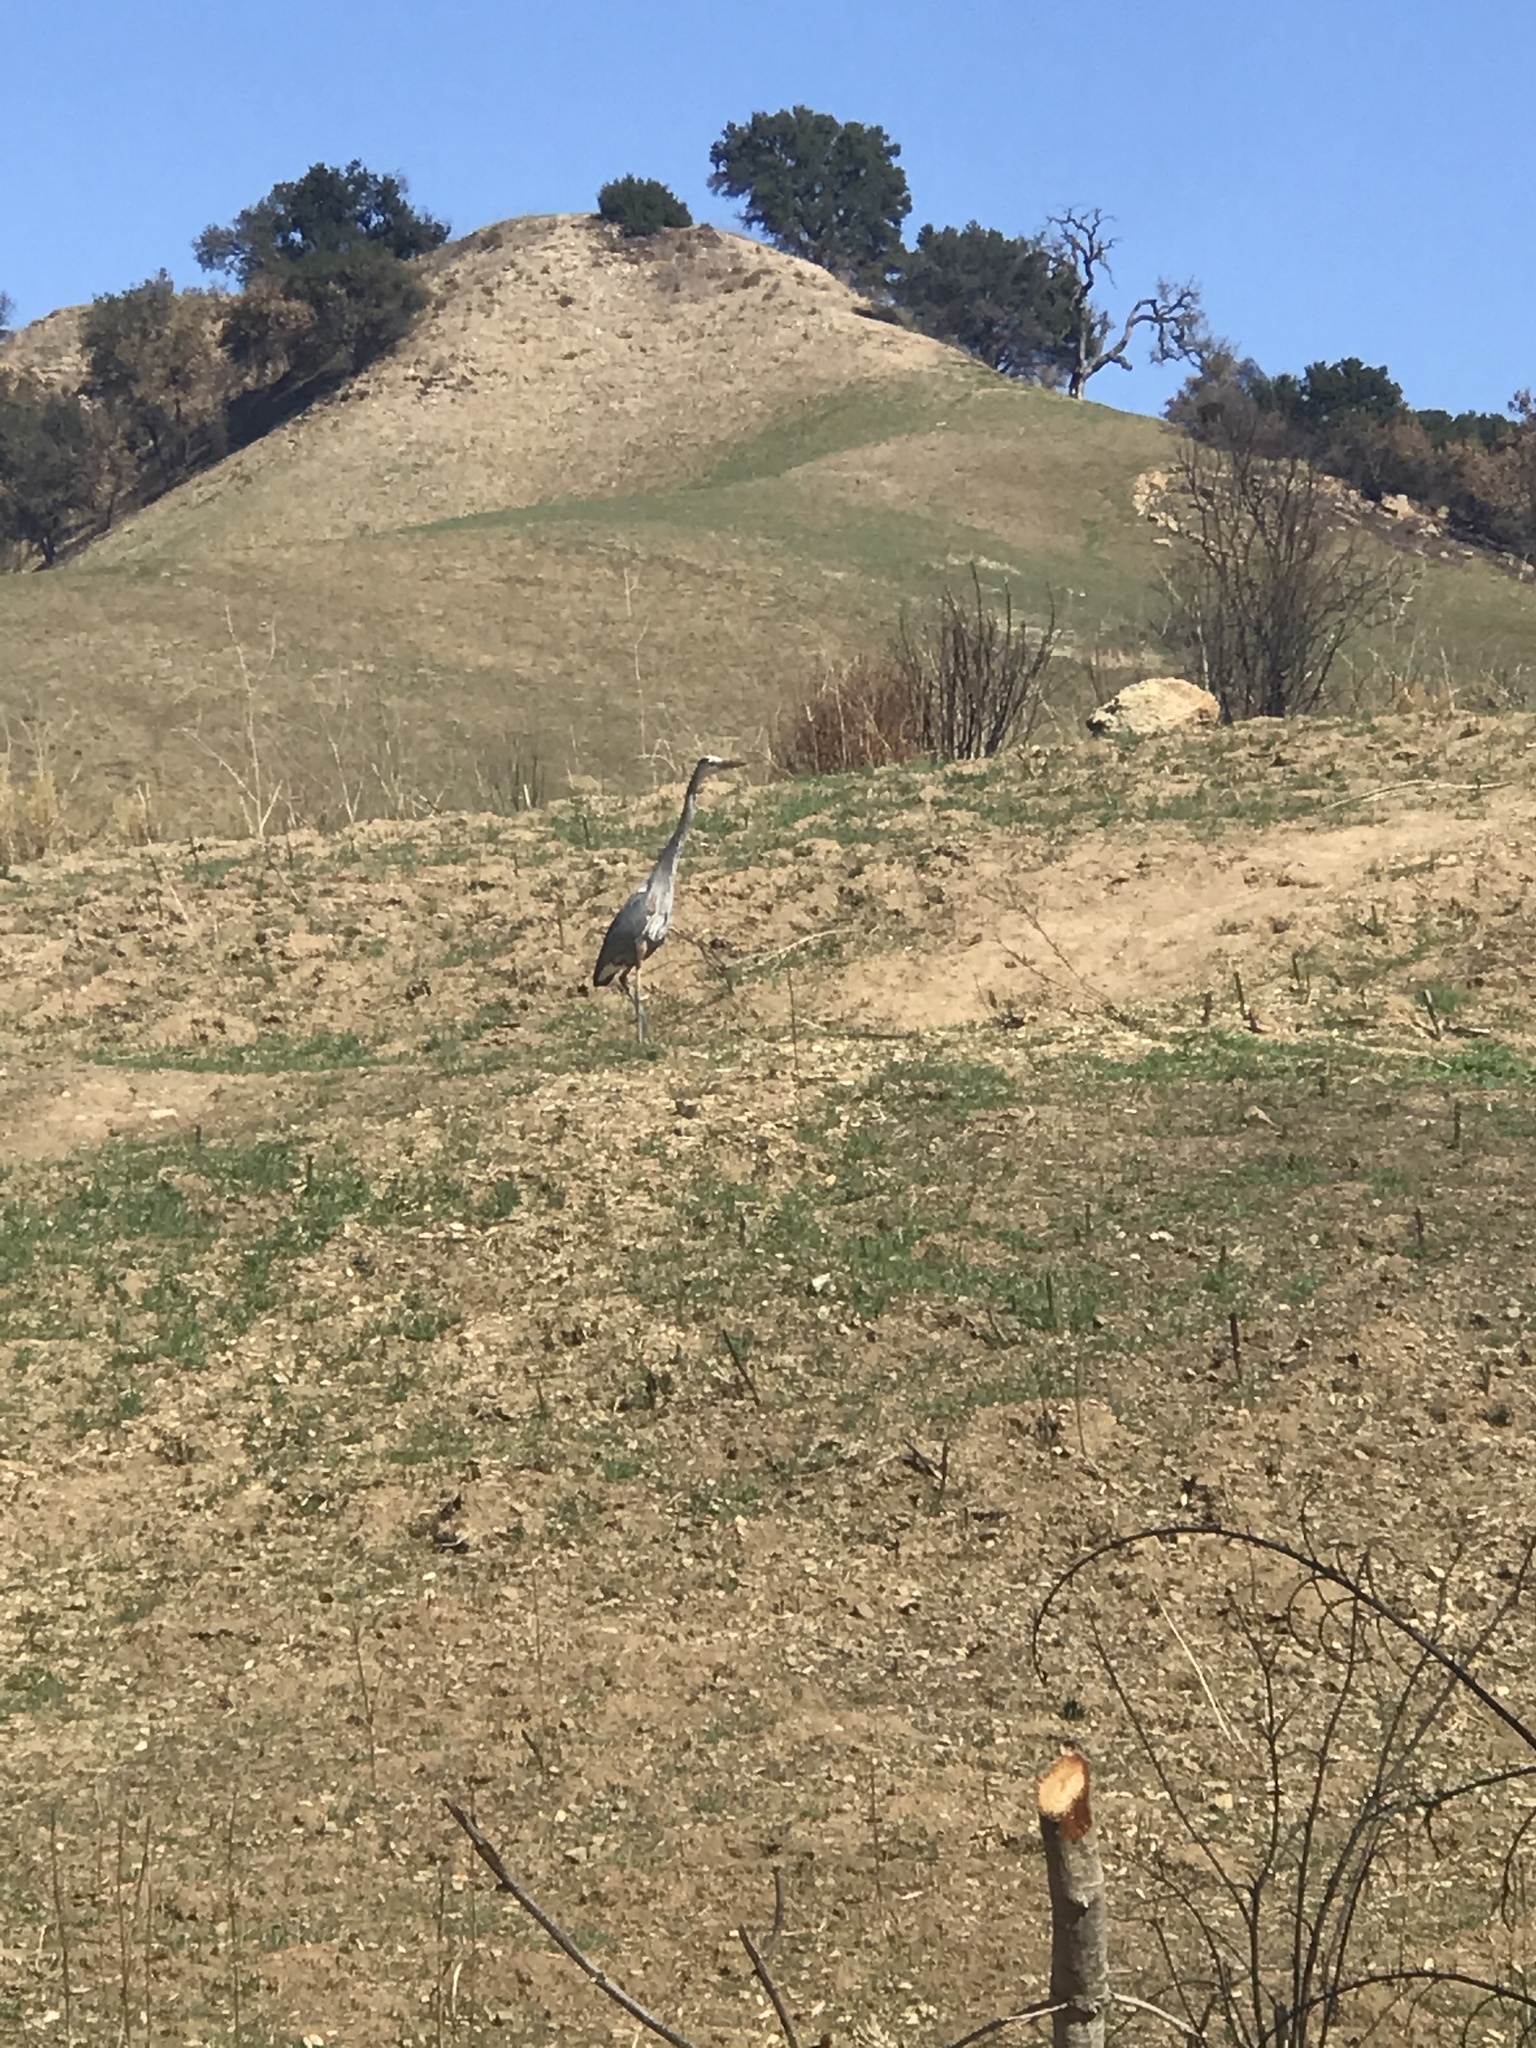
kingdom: Animalia
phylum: Chordata
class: Aves
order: Pelecaniformes
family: Ardeidae
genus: Ardea
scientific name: Ardea herodias
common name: Great blue heron
